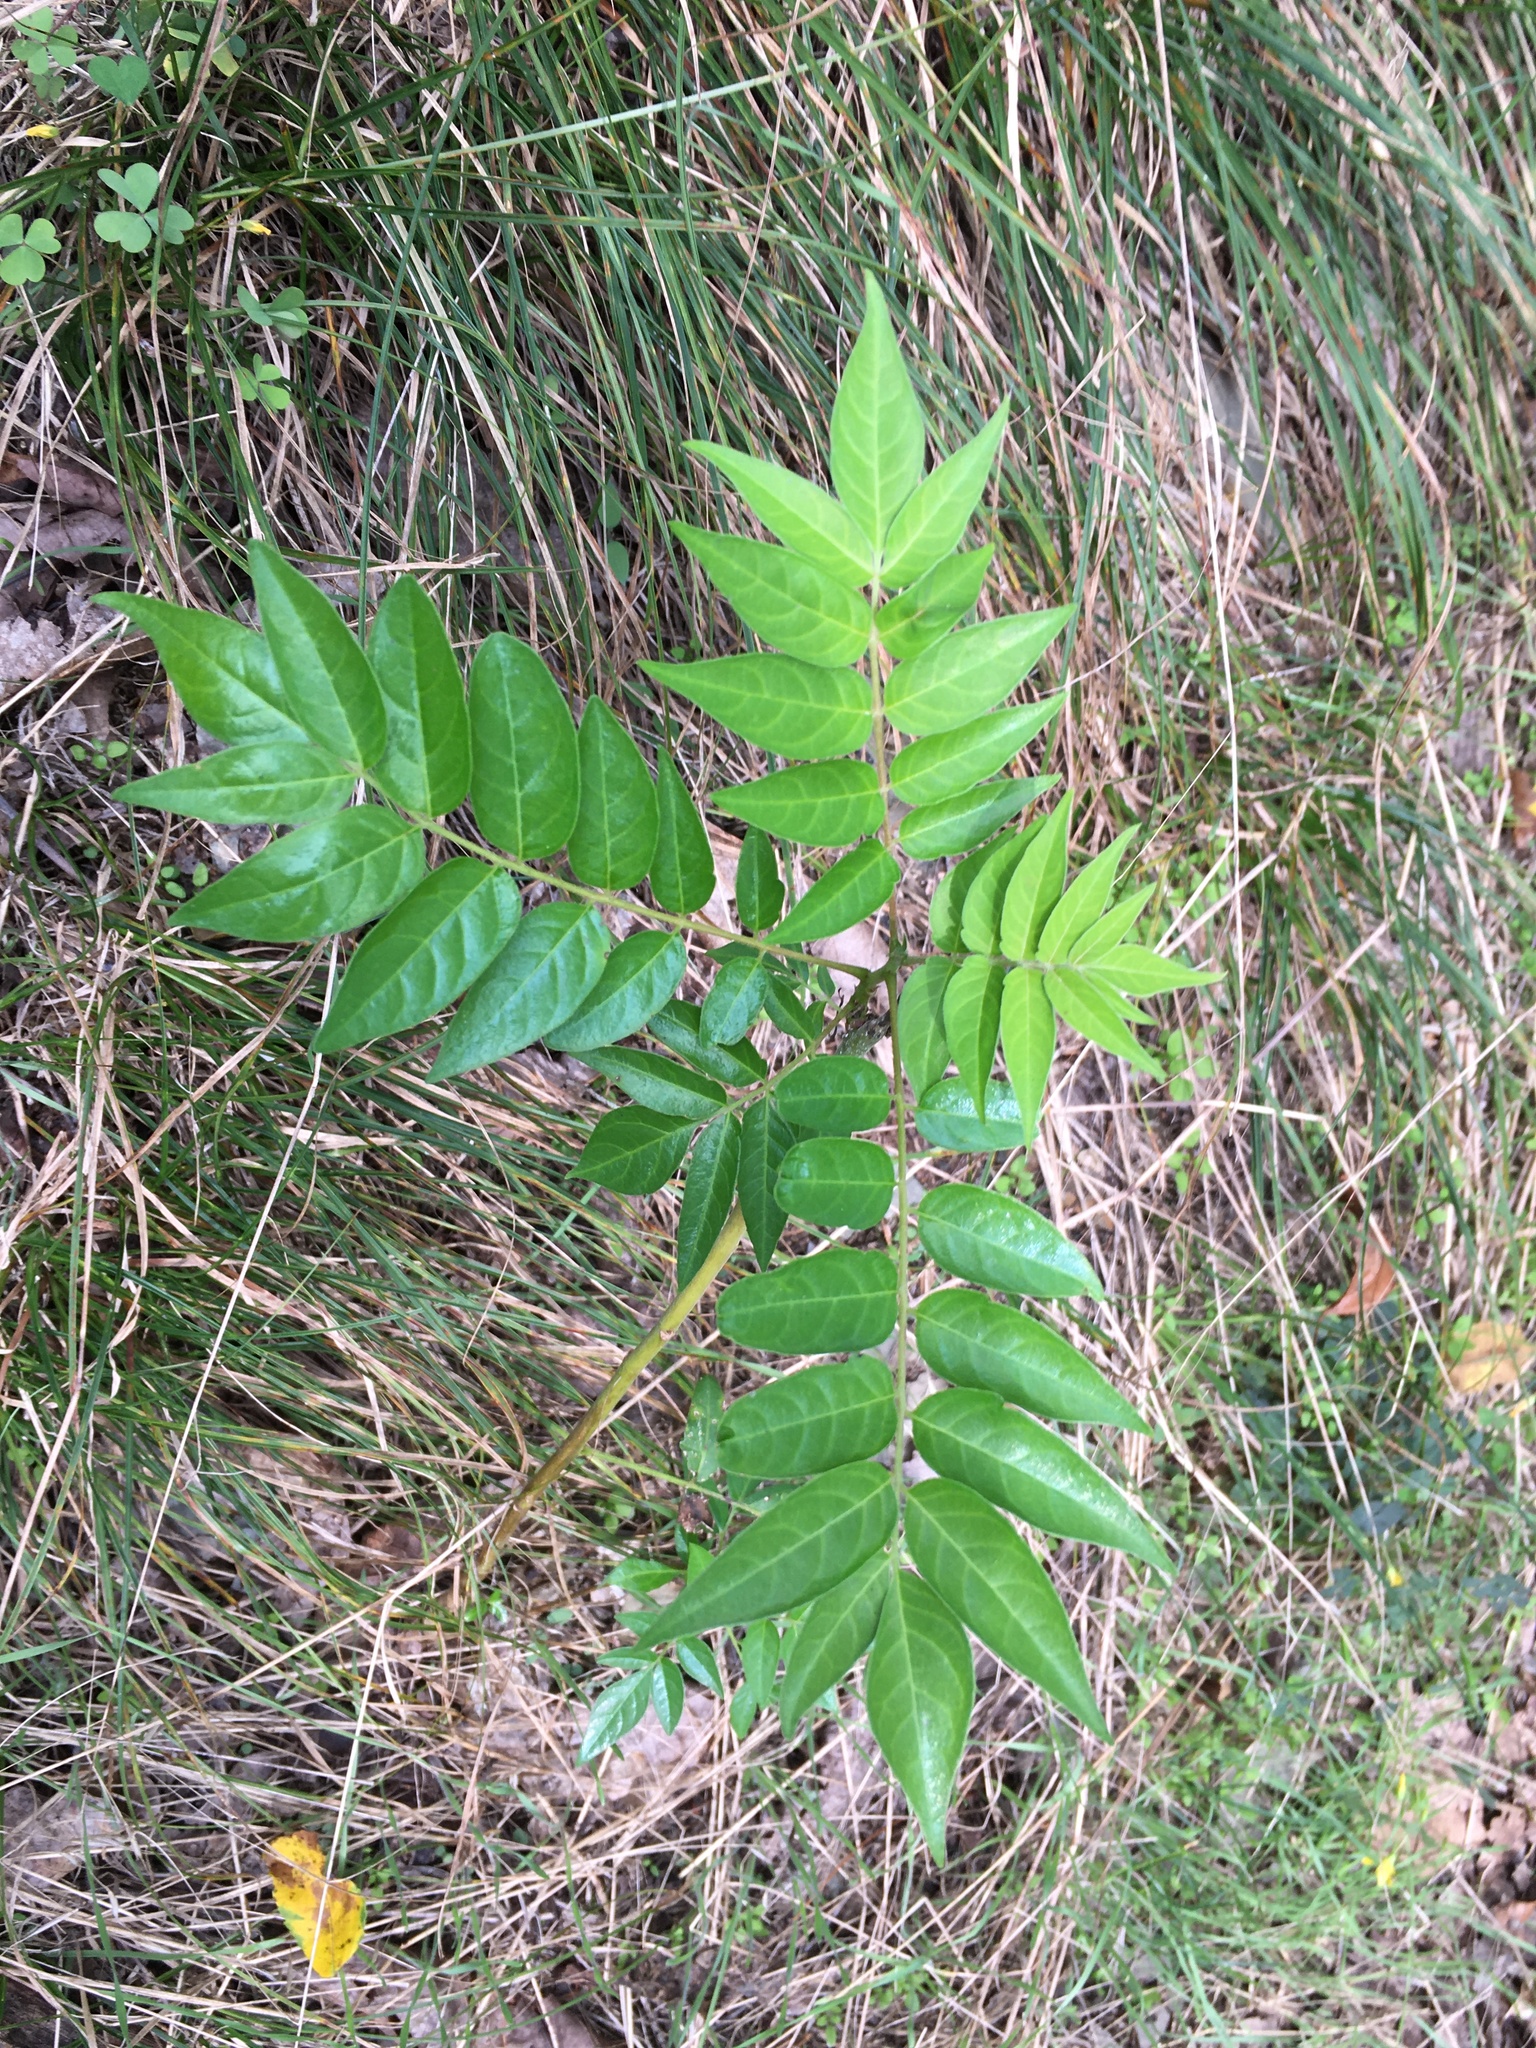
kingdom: Plantae
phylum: Tracheophyta
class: Magnoliopsida
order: Sapindales
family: Simaroubaceae
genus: Ailanthus
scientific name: Ailanthus altissima
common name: Tree-of-heaven
